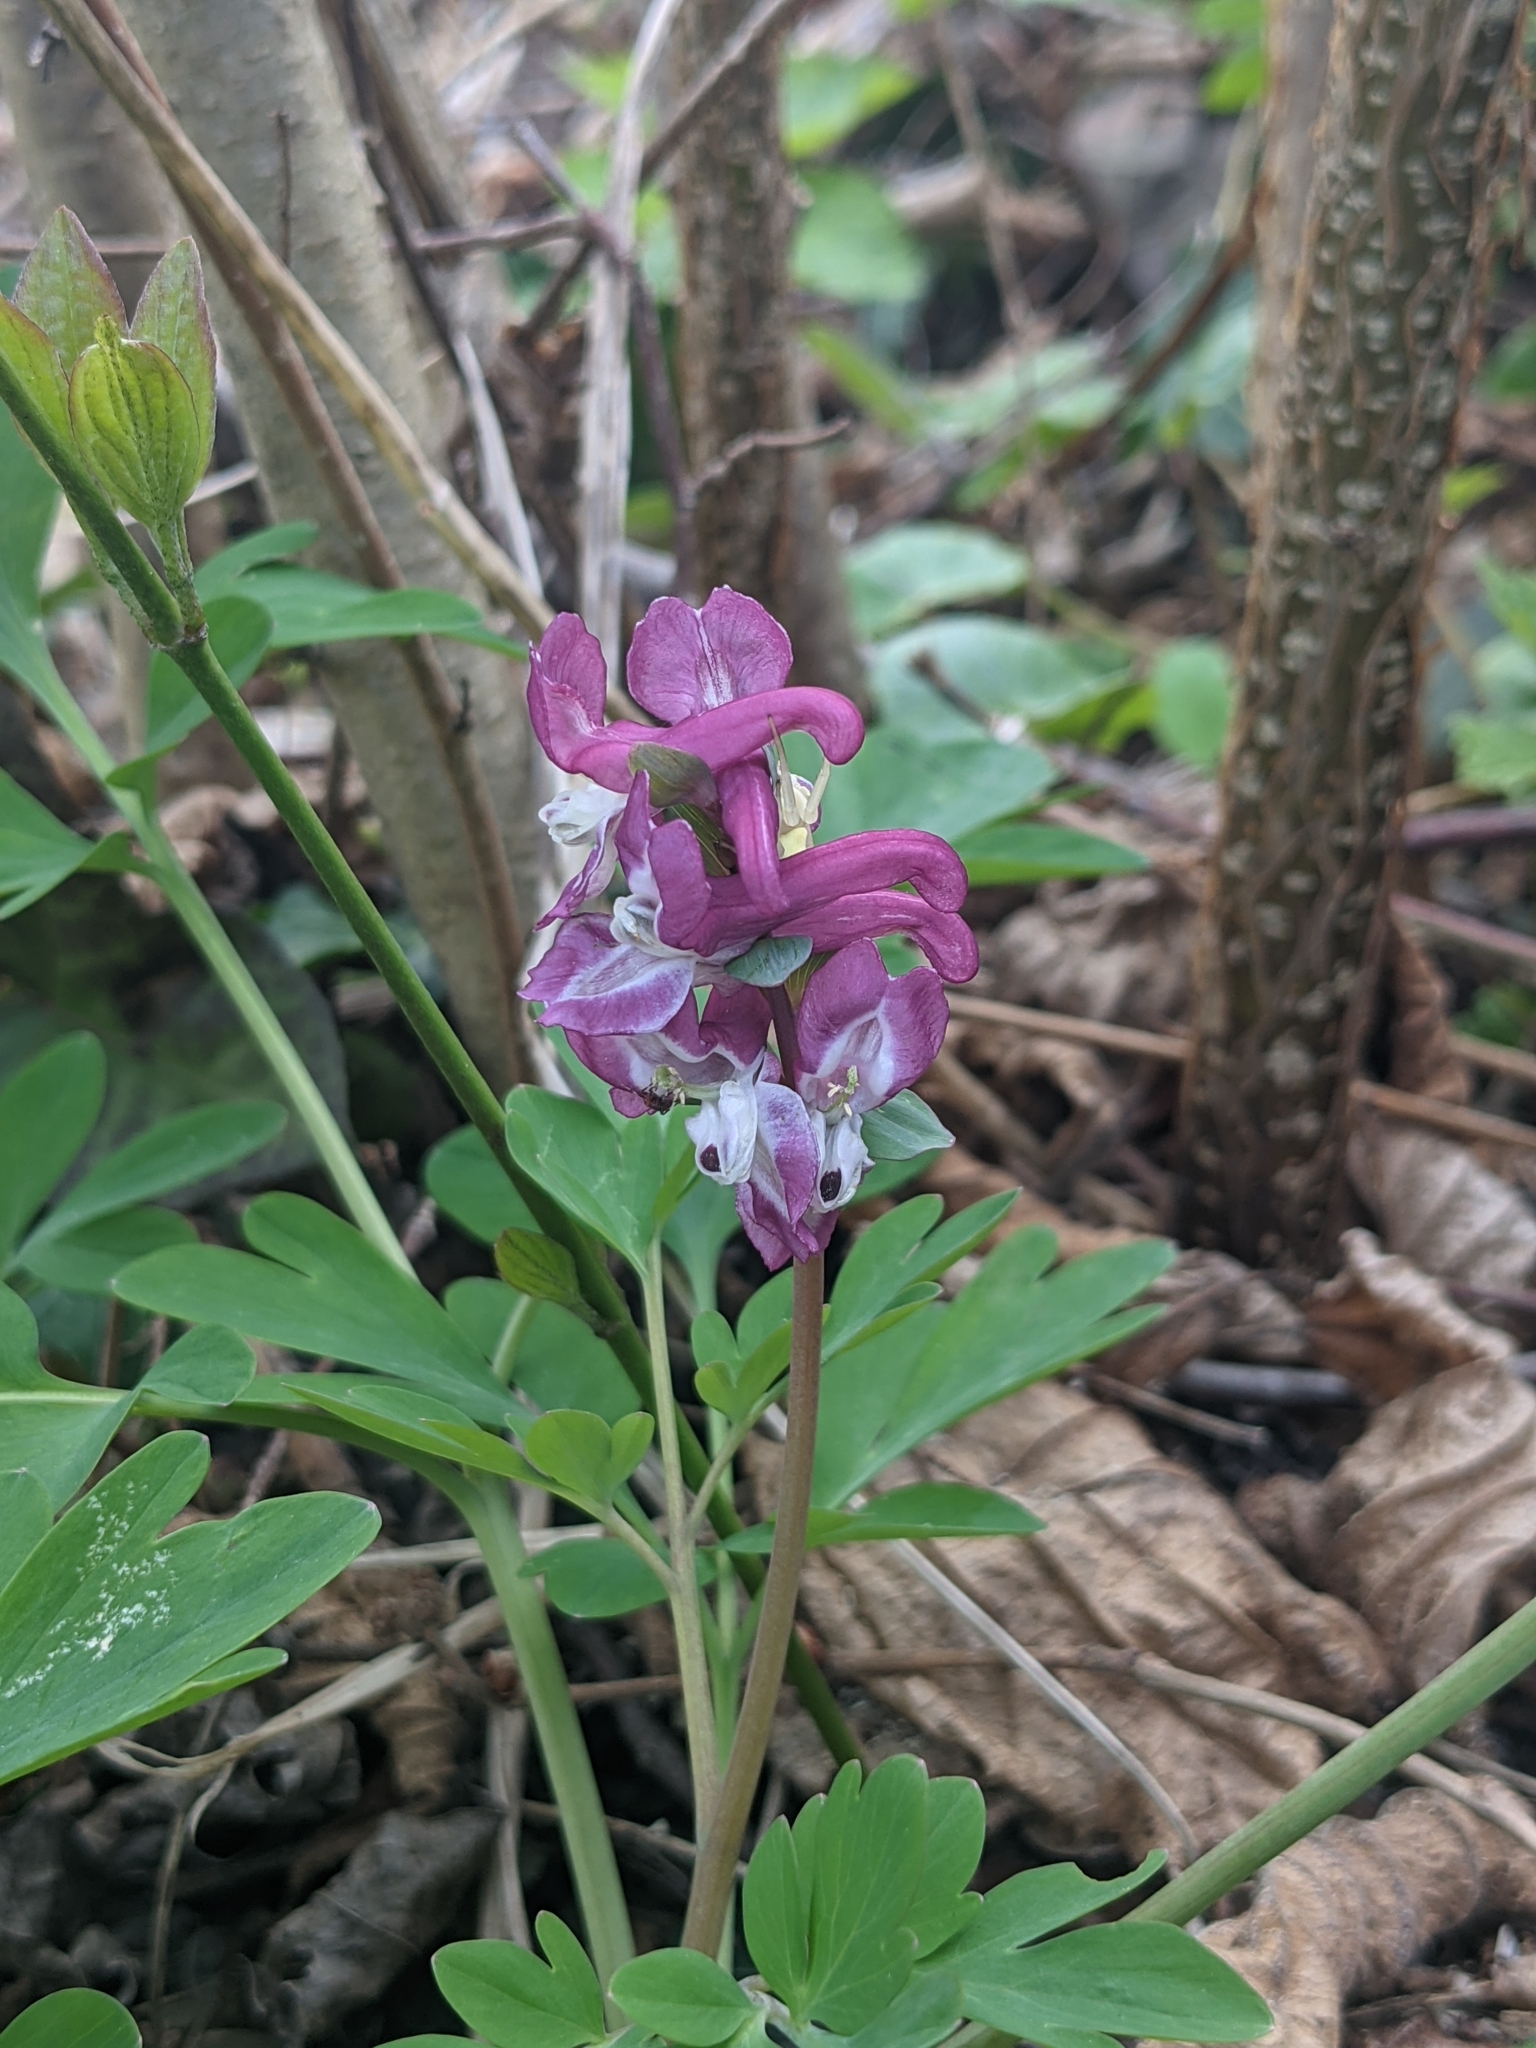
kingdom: Plantae
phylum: Tracheophyta
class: Magnoliopsida
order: Ranunculales
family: Papaveraceae
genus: Corydalis
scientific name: Corydalis cava
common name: Hollowroot
